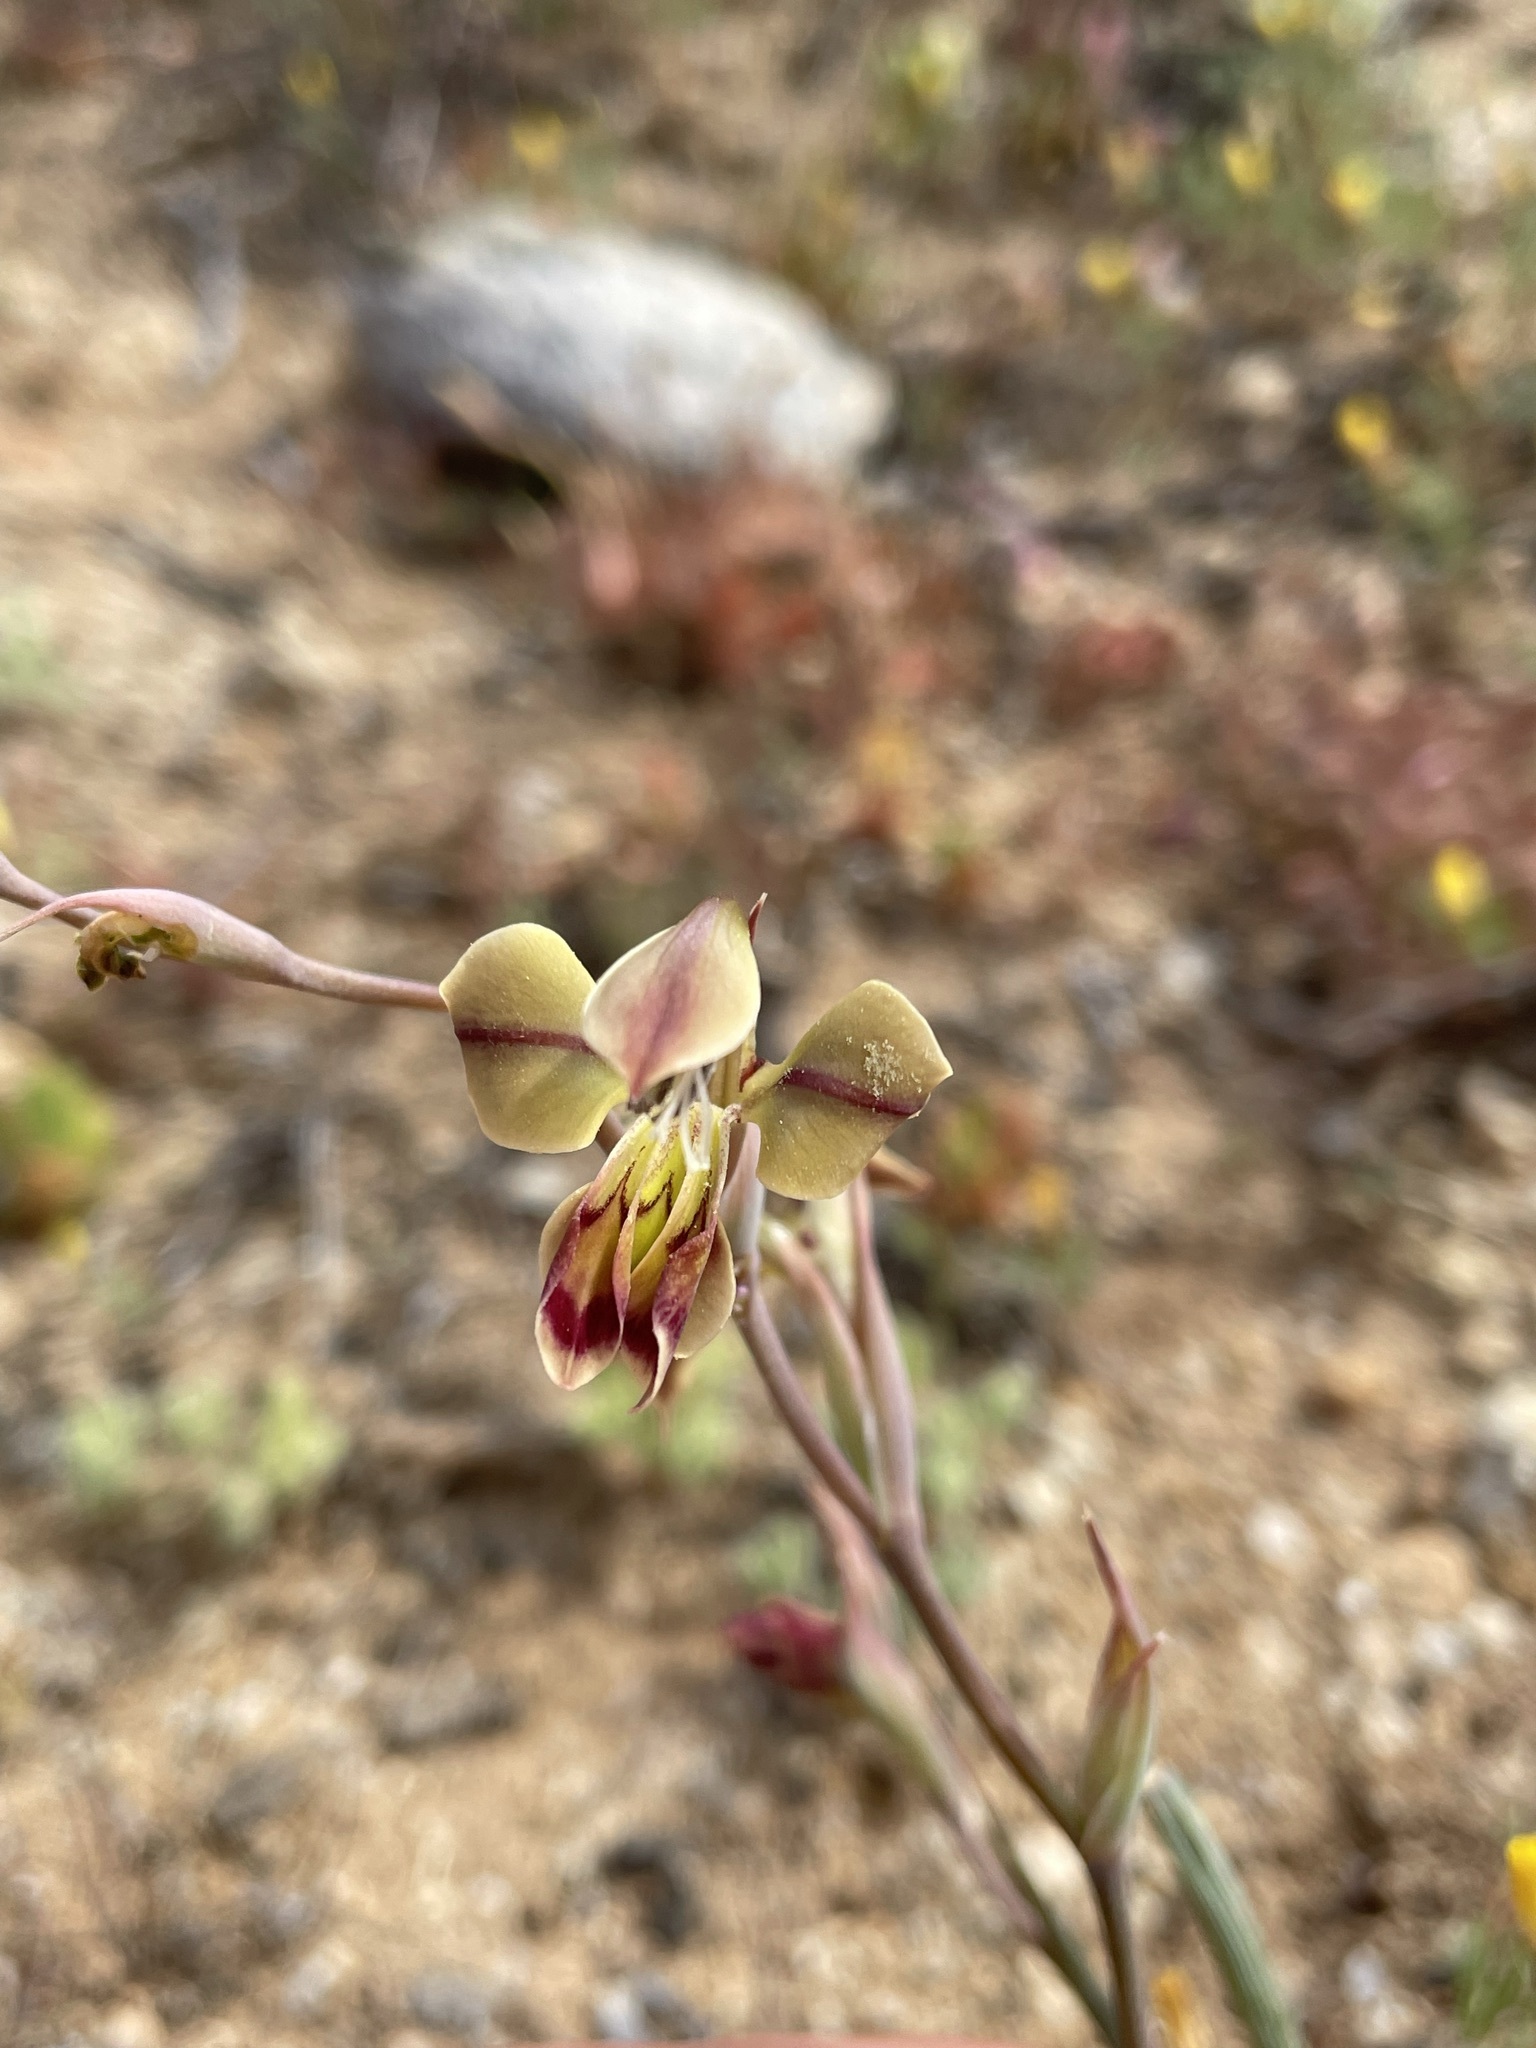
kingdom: Plantae
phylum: Tracheophyta
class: Liliopsida
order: Asparagales
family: Iridaceae
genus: Gladiolus
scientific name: Gladiolus orchidiflorus
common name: Gray kalkoentjie
